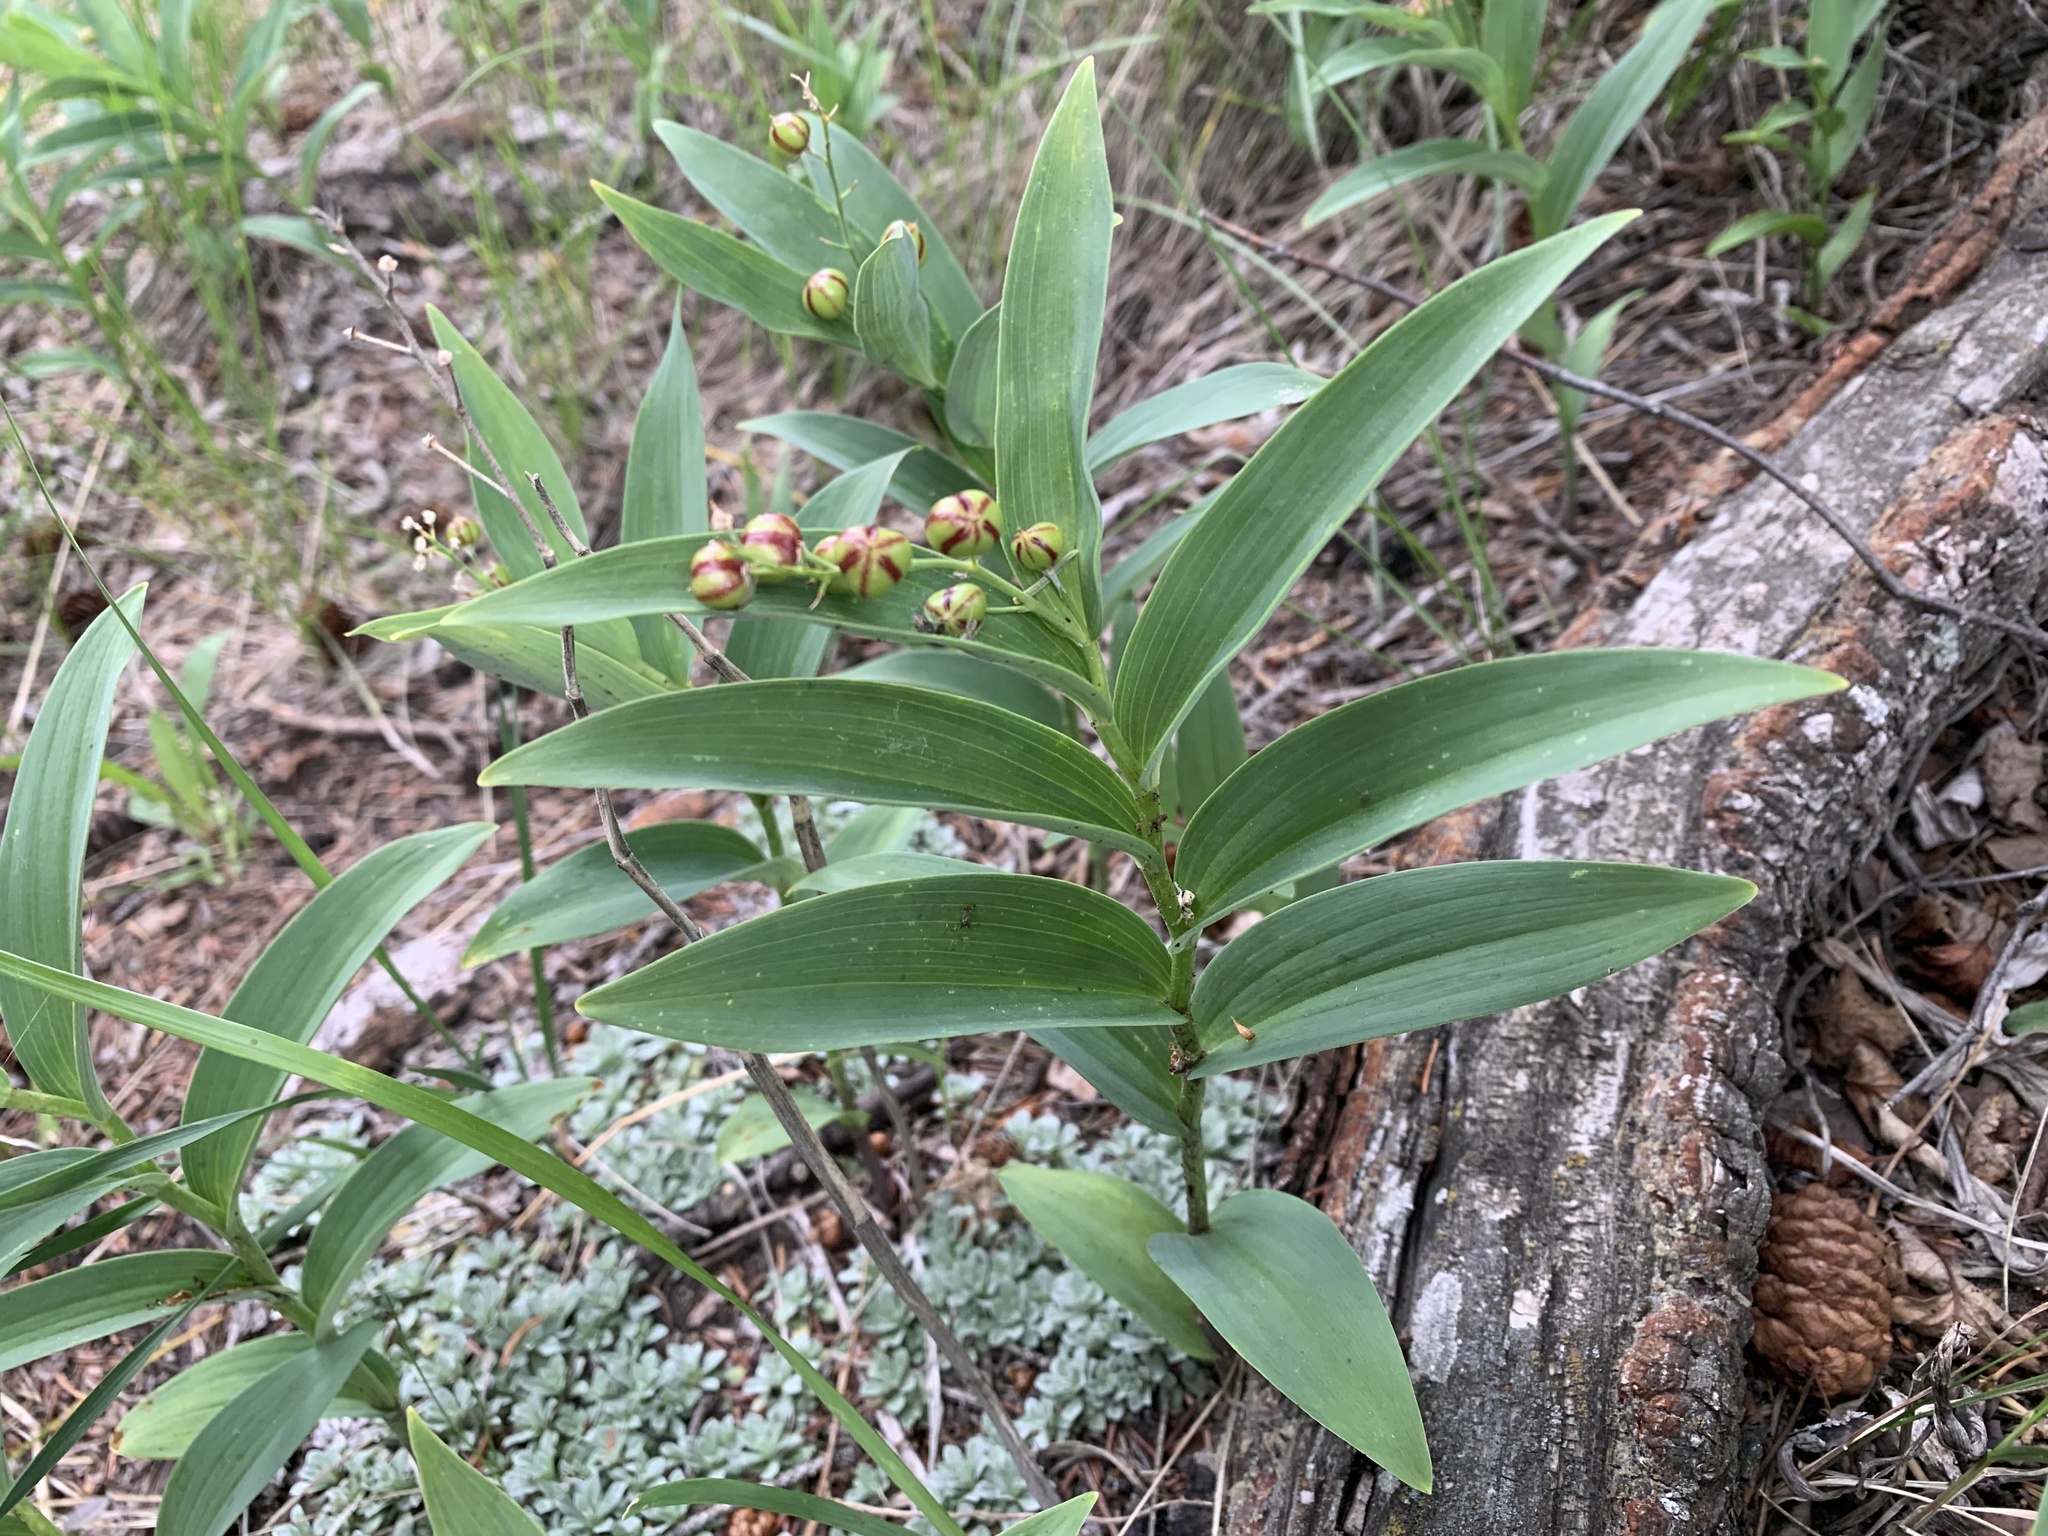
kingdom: Plantae
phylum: Tracheophyta
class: Liliopsida
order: Asparagales
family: Asparagaceae
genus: Maianthemum
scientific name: Maianthemum stellatum
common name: Little false solomon's seal
